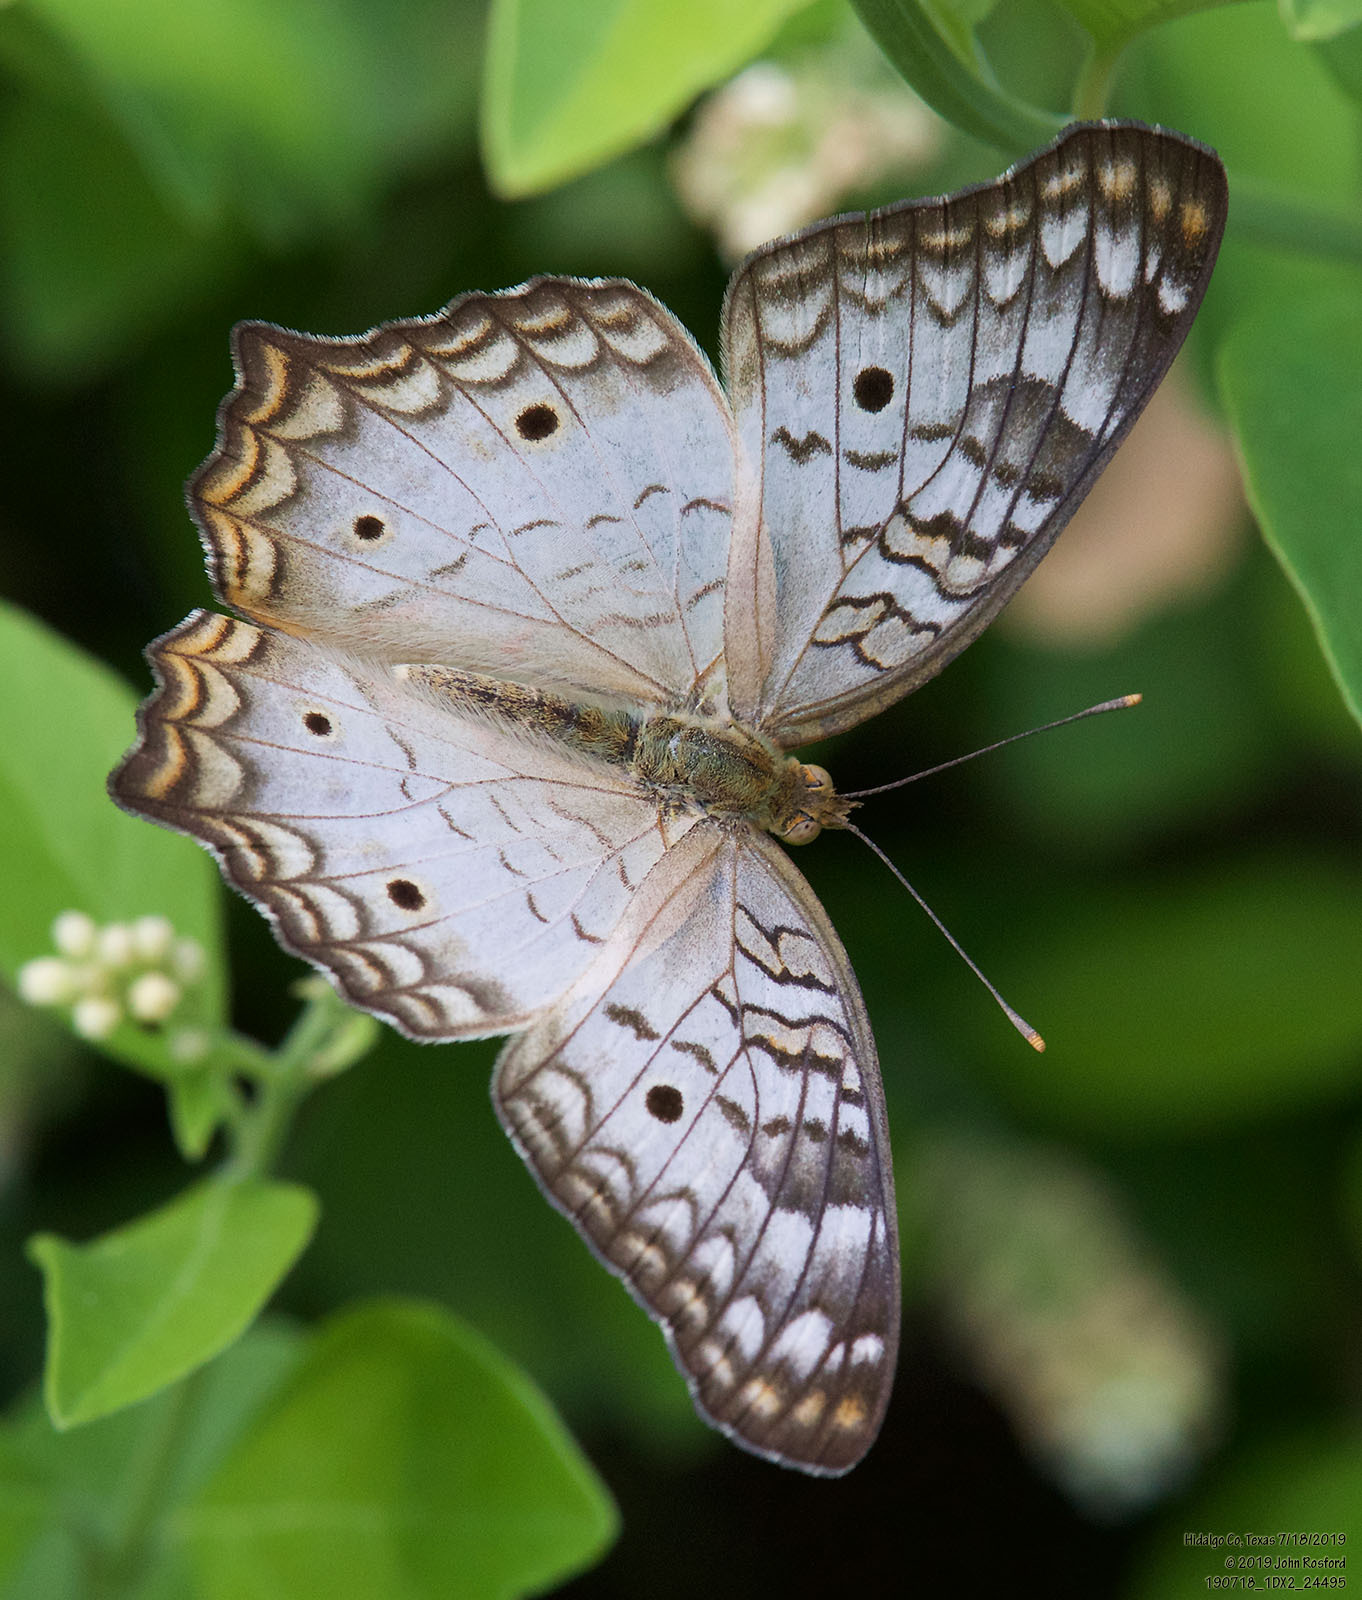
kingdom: Animalia
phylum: Arthropoda
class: Insecta
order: Lepidoptera
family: Nymphalidae
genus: Anartia
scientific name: Anartia jatrophae
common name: White peacock
